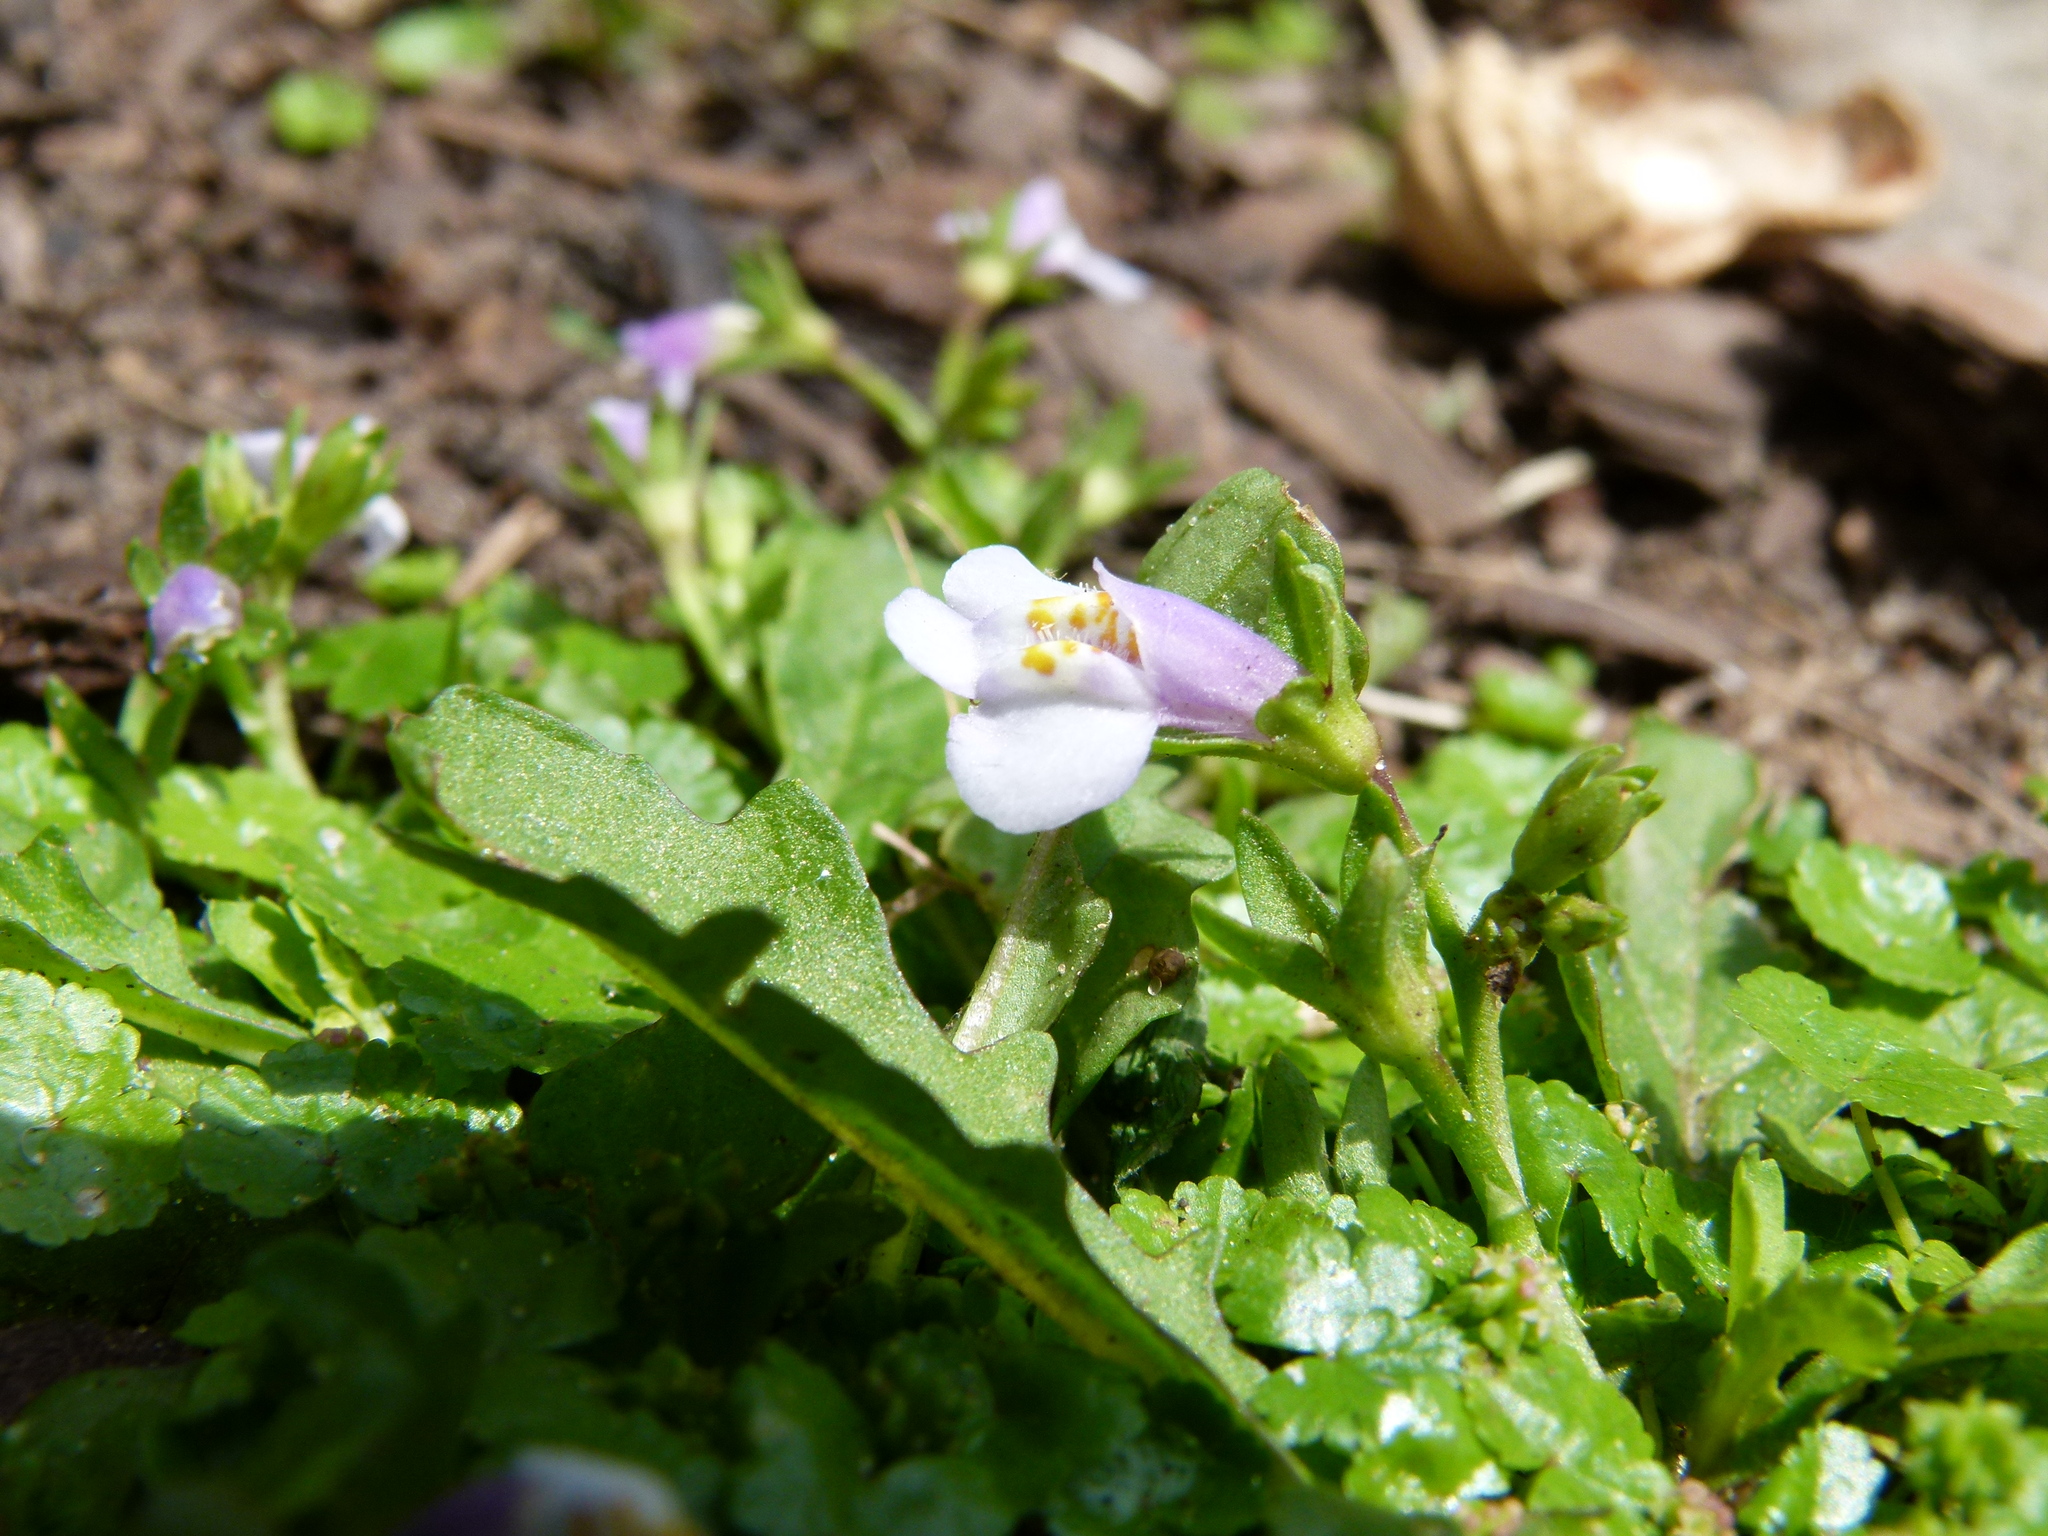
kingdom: Plantae
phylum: Tracheophyta
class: Magnoliopsida
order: Lamiales
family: Mazaceae
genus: Mazus
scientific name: Mazus pumilus
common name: Japanese mazus
